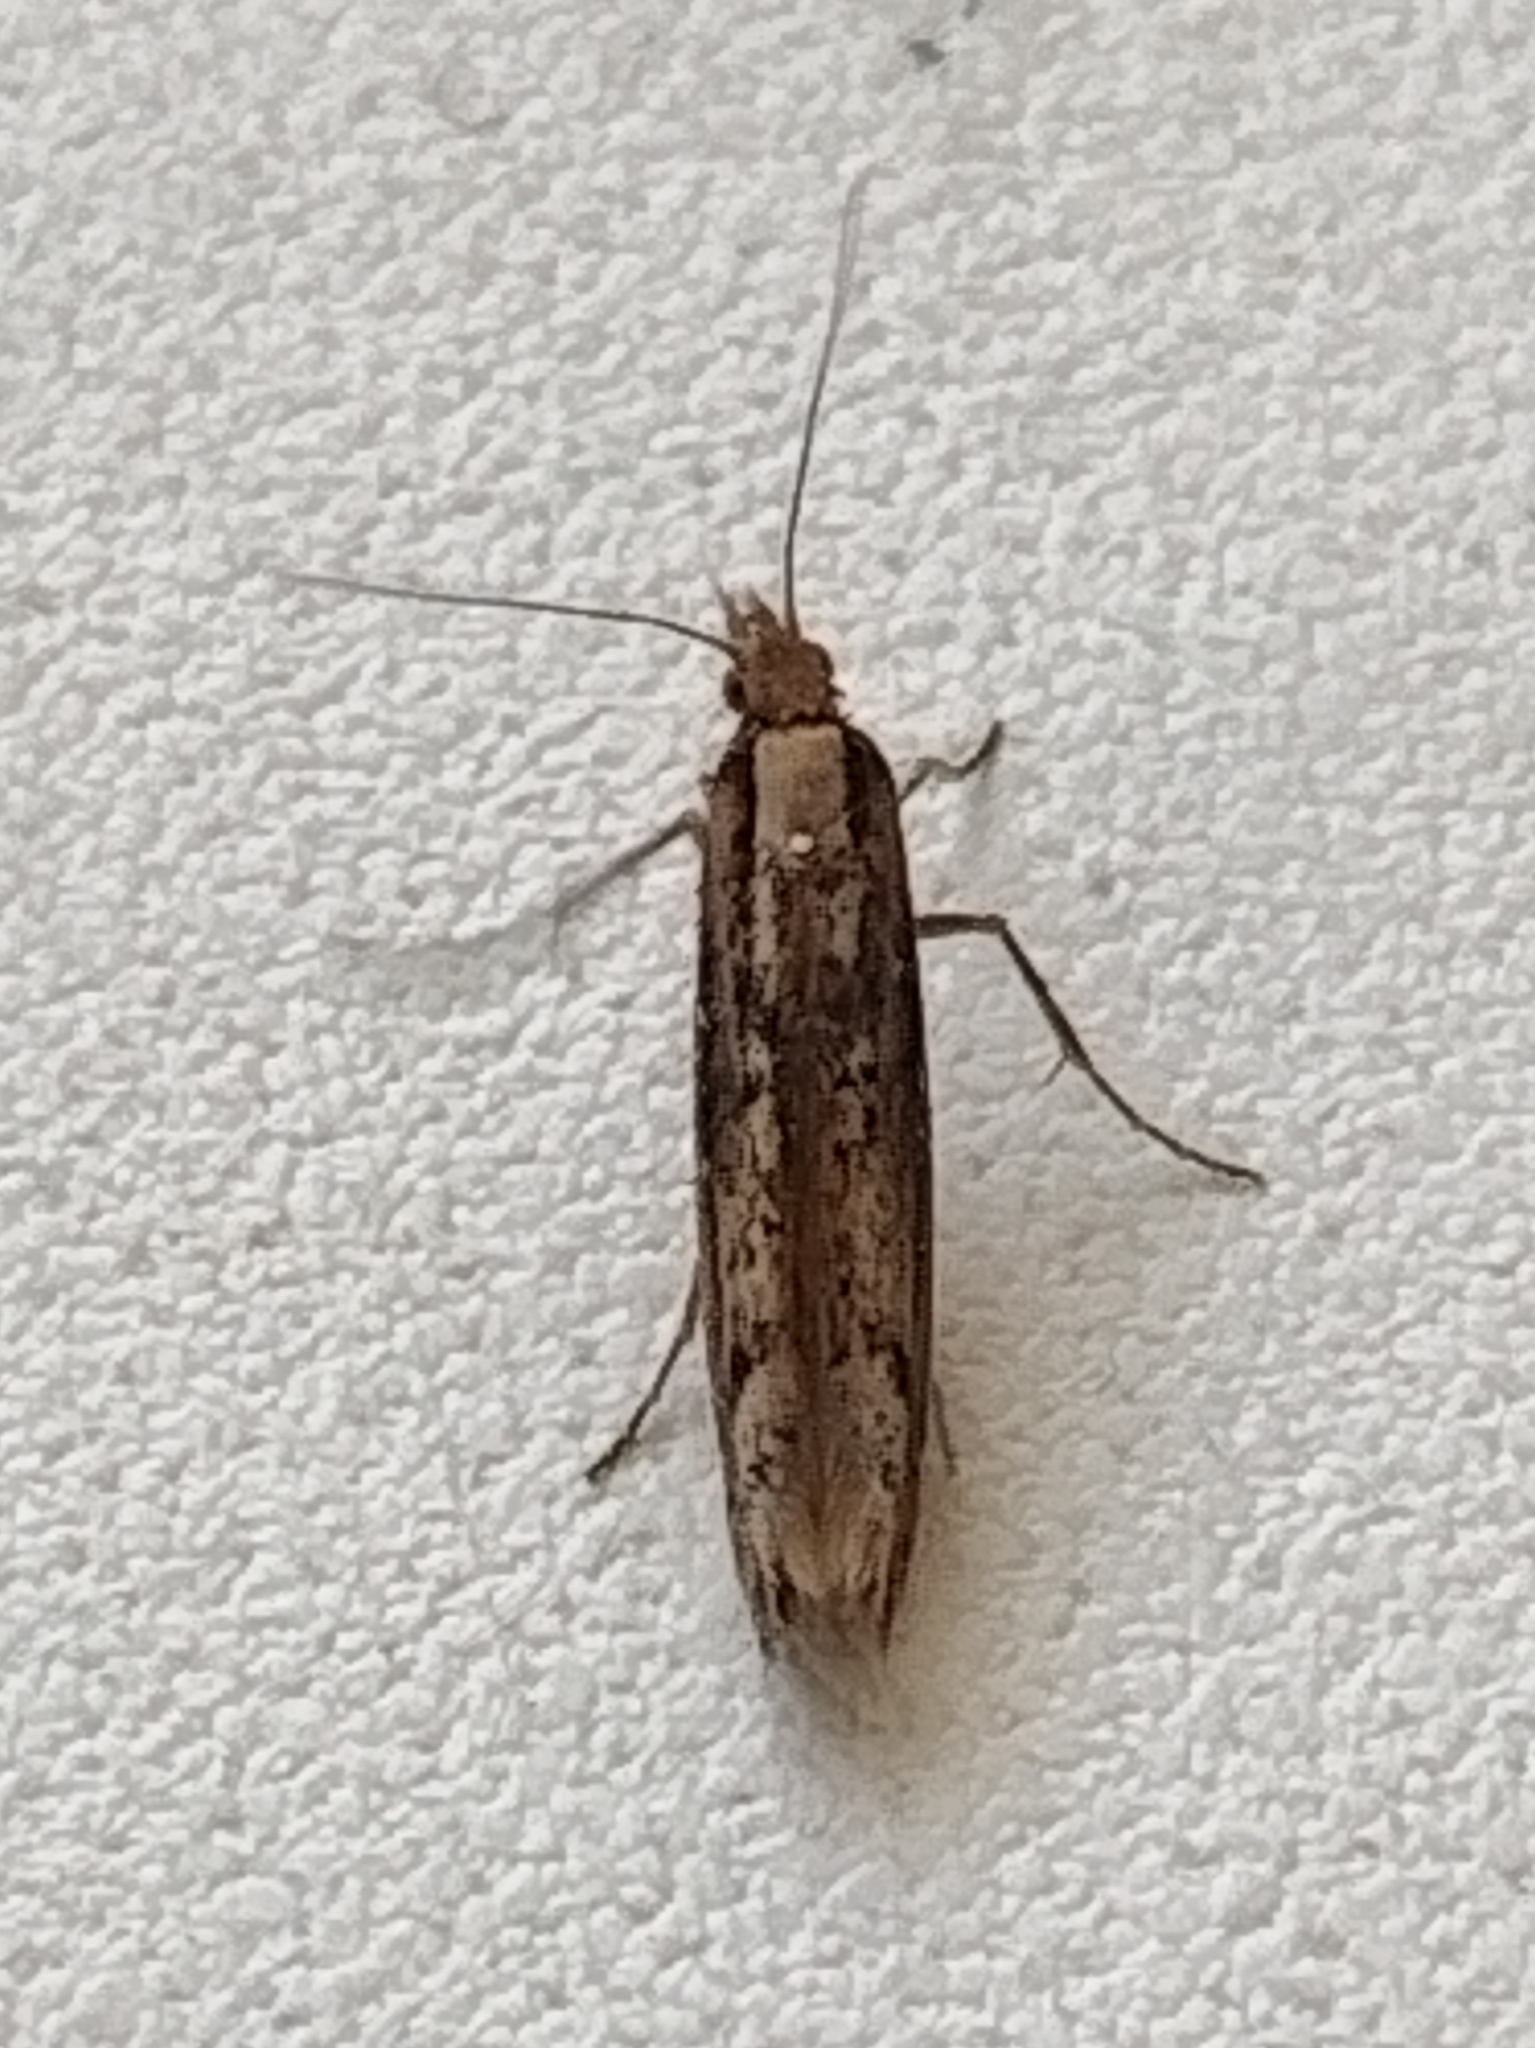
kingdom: Animalia
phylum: Arthropoda
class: Insecta
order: Lepidoptera
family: Plutellidae
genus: Ypsolophus
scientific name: Ypsolophus ustella
